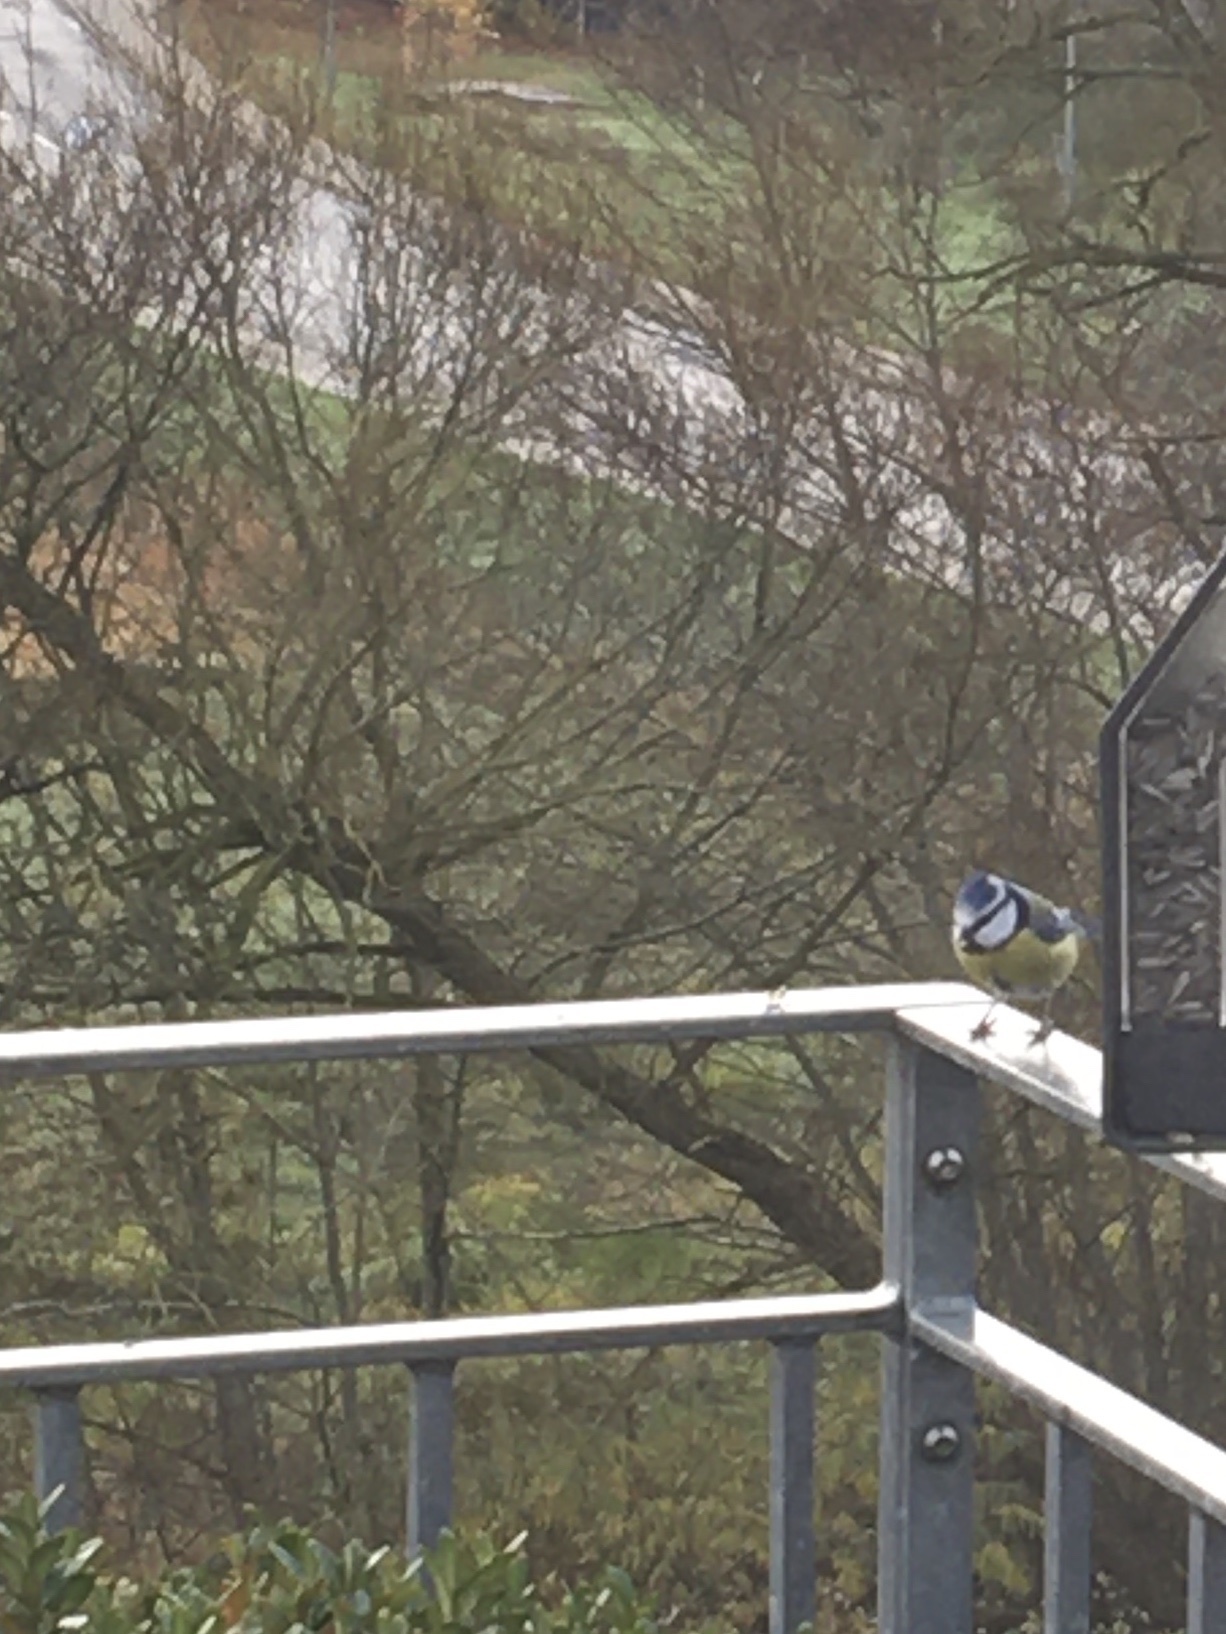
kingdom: Animalia
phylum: Chordata
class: Aves
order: Passeriformes
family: Paridae
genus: Cyanistes
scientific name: Cyanistes caeruleus
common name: Eurasian blue tit
